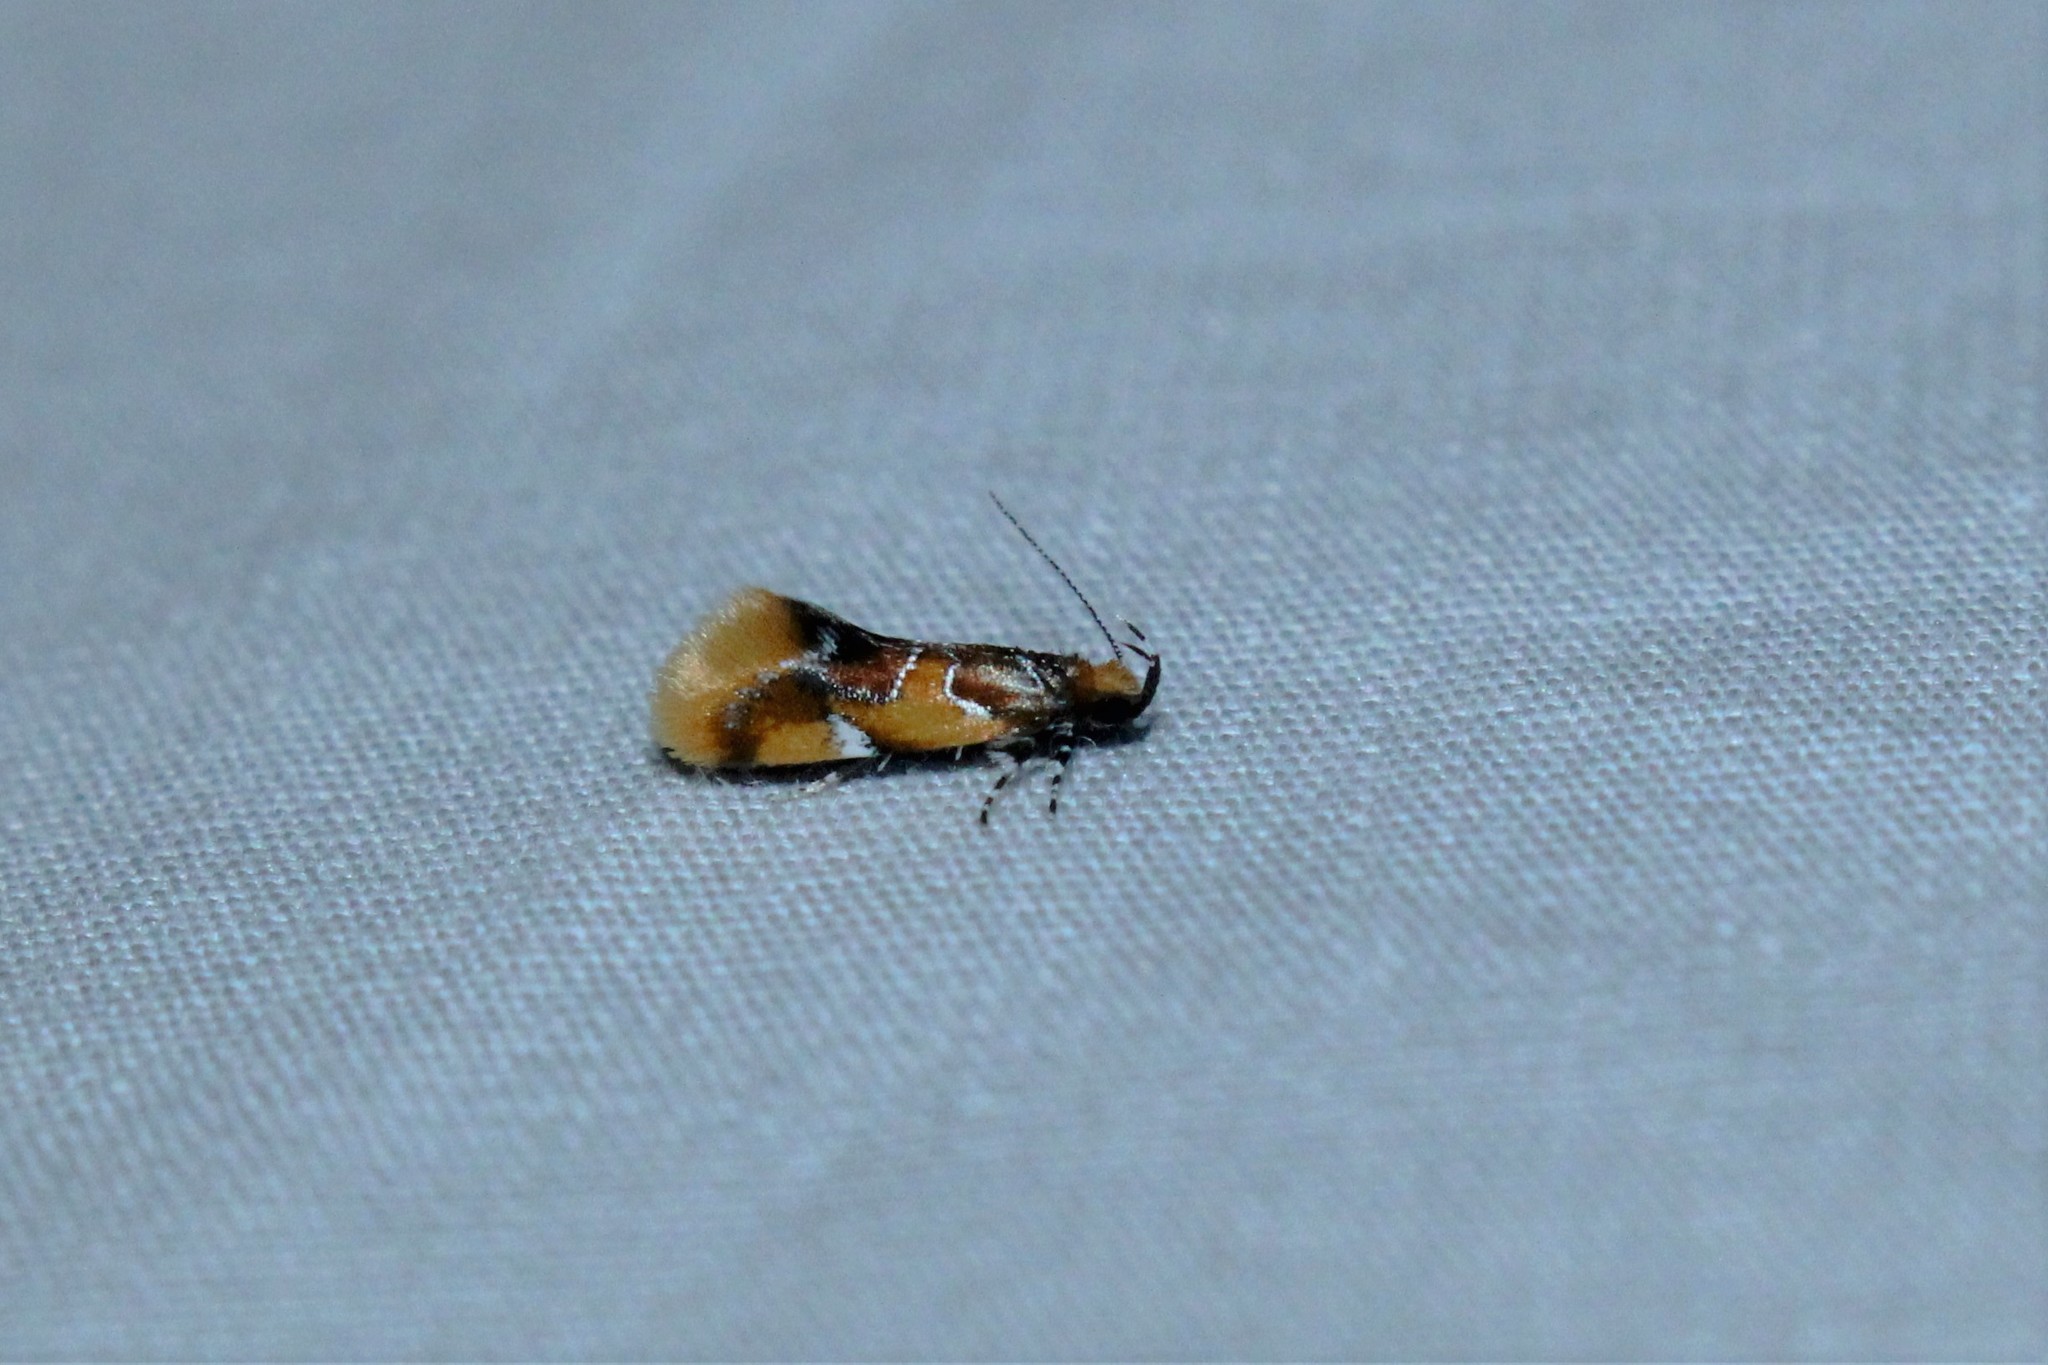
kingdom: Animalia
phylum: Arthropoda
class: Insecta
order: Lepidoptera
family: Oecophoridae
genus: Callima
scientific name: Callima argenticinctella
